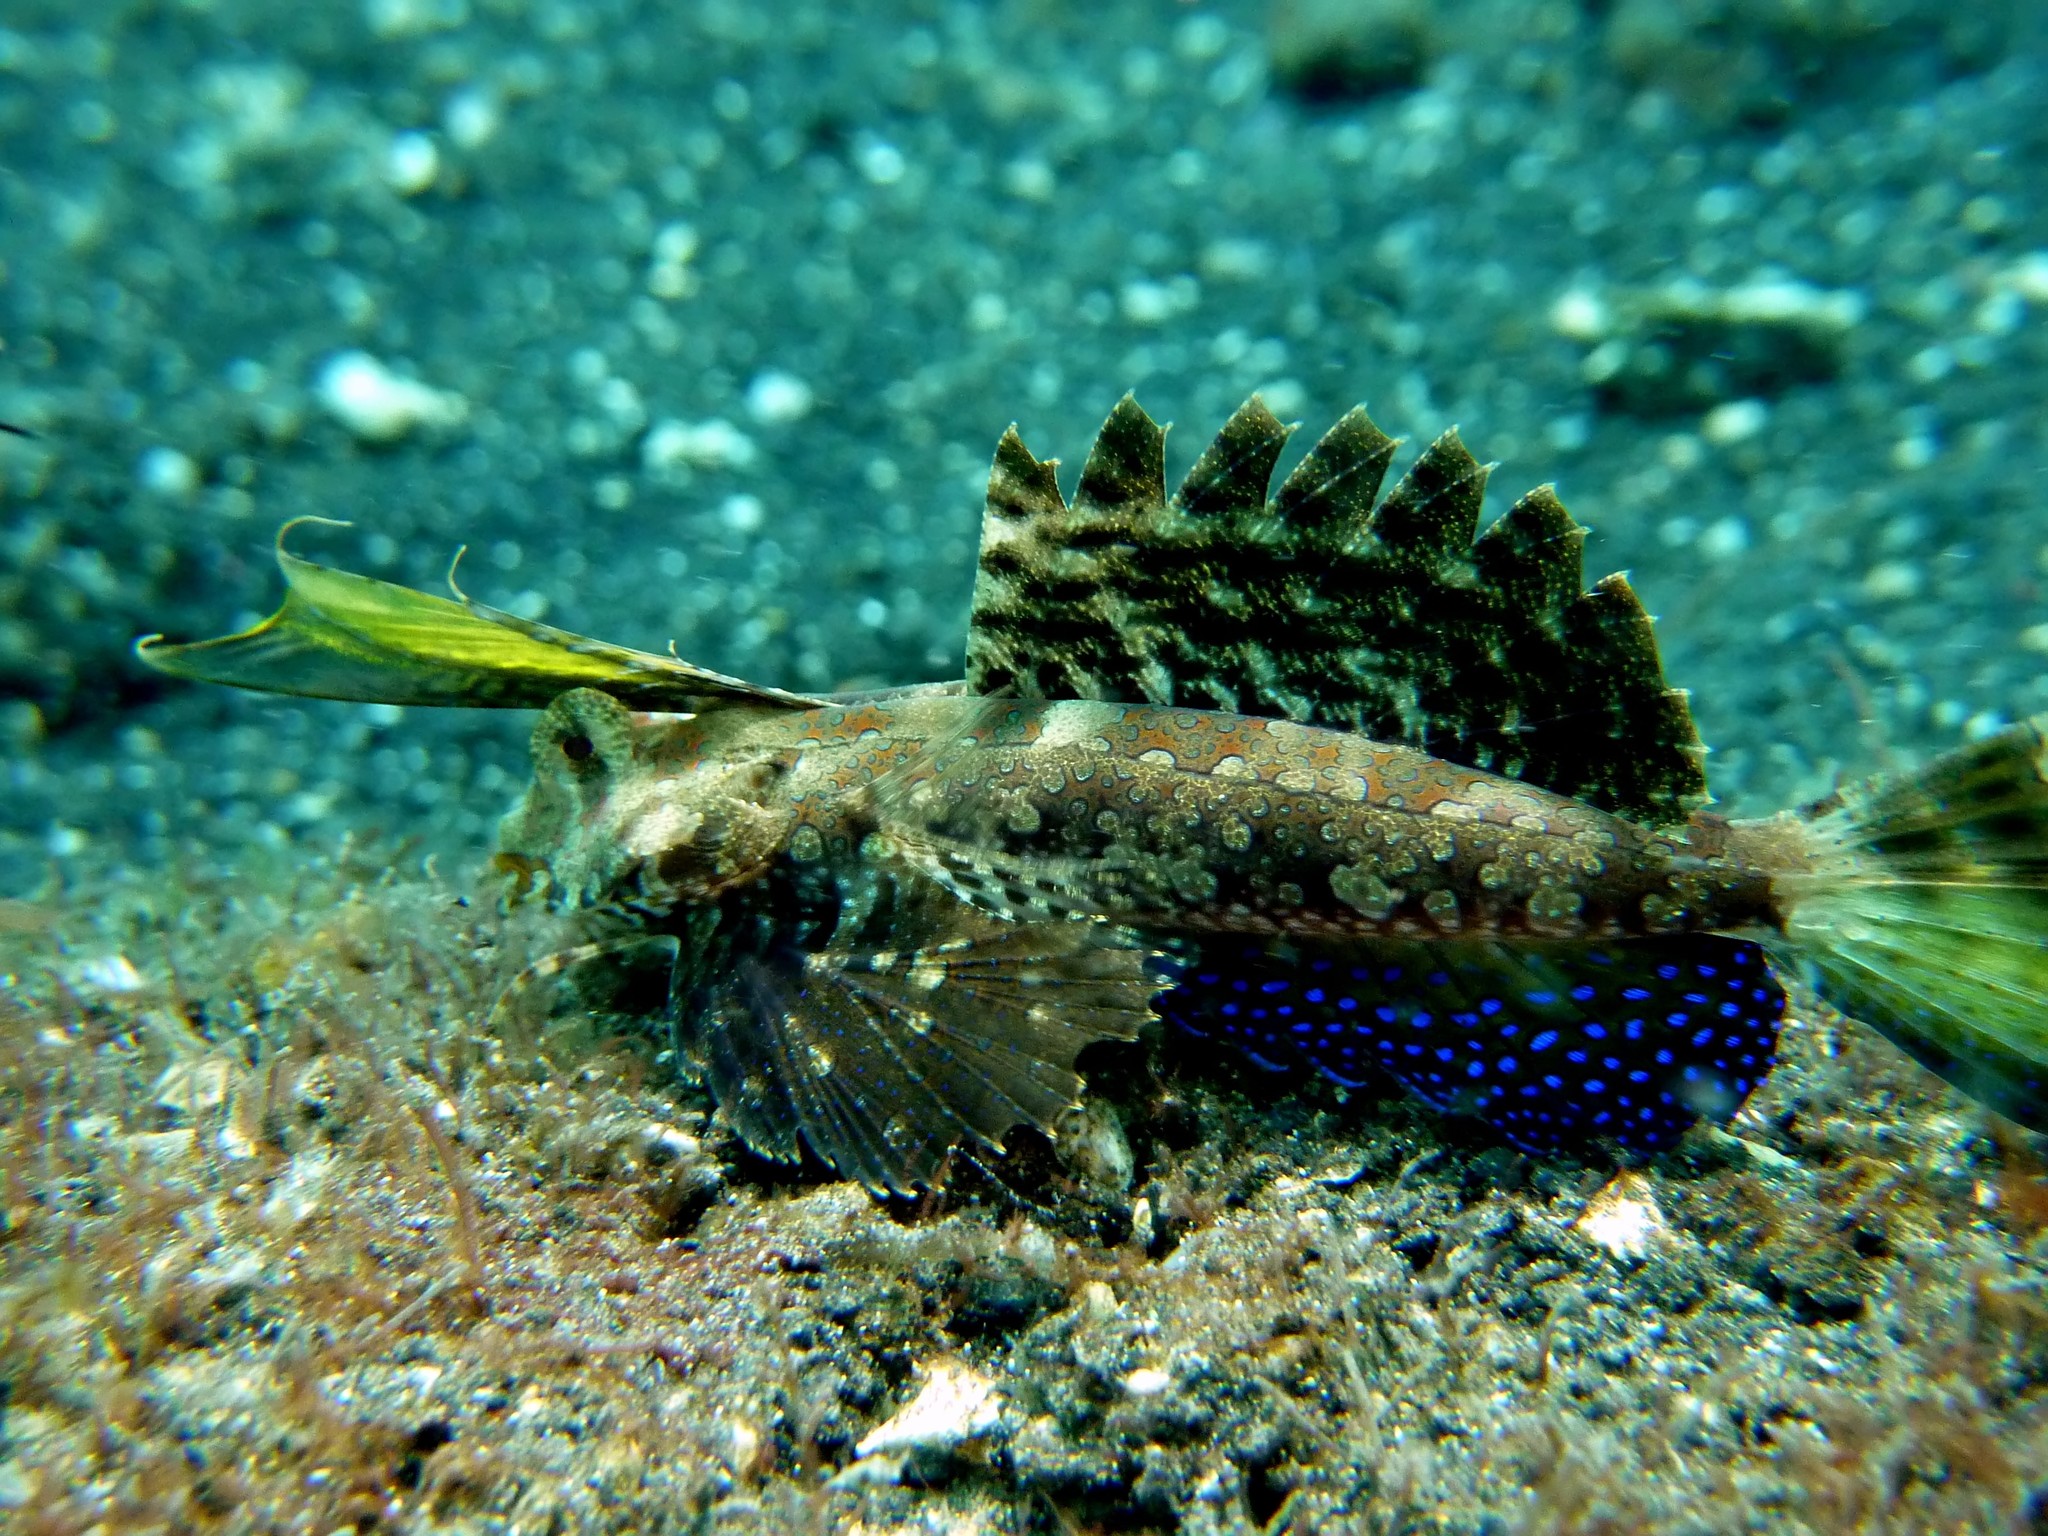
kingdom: Animalia
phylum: Chordata
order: Perciformes
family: Callionymidae
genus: Dactylopus
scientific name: Dactylopus dactylopus
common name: Fingered dragonet
